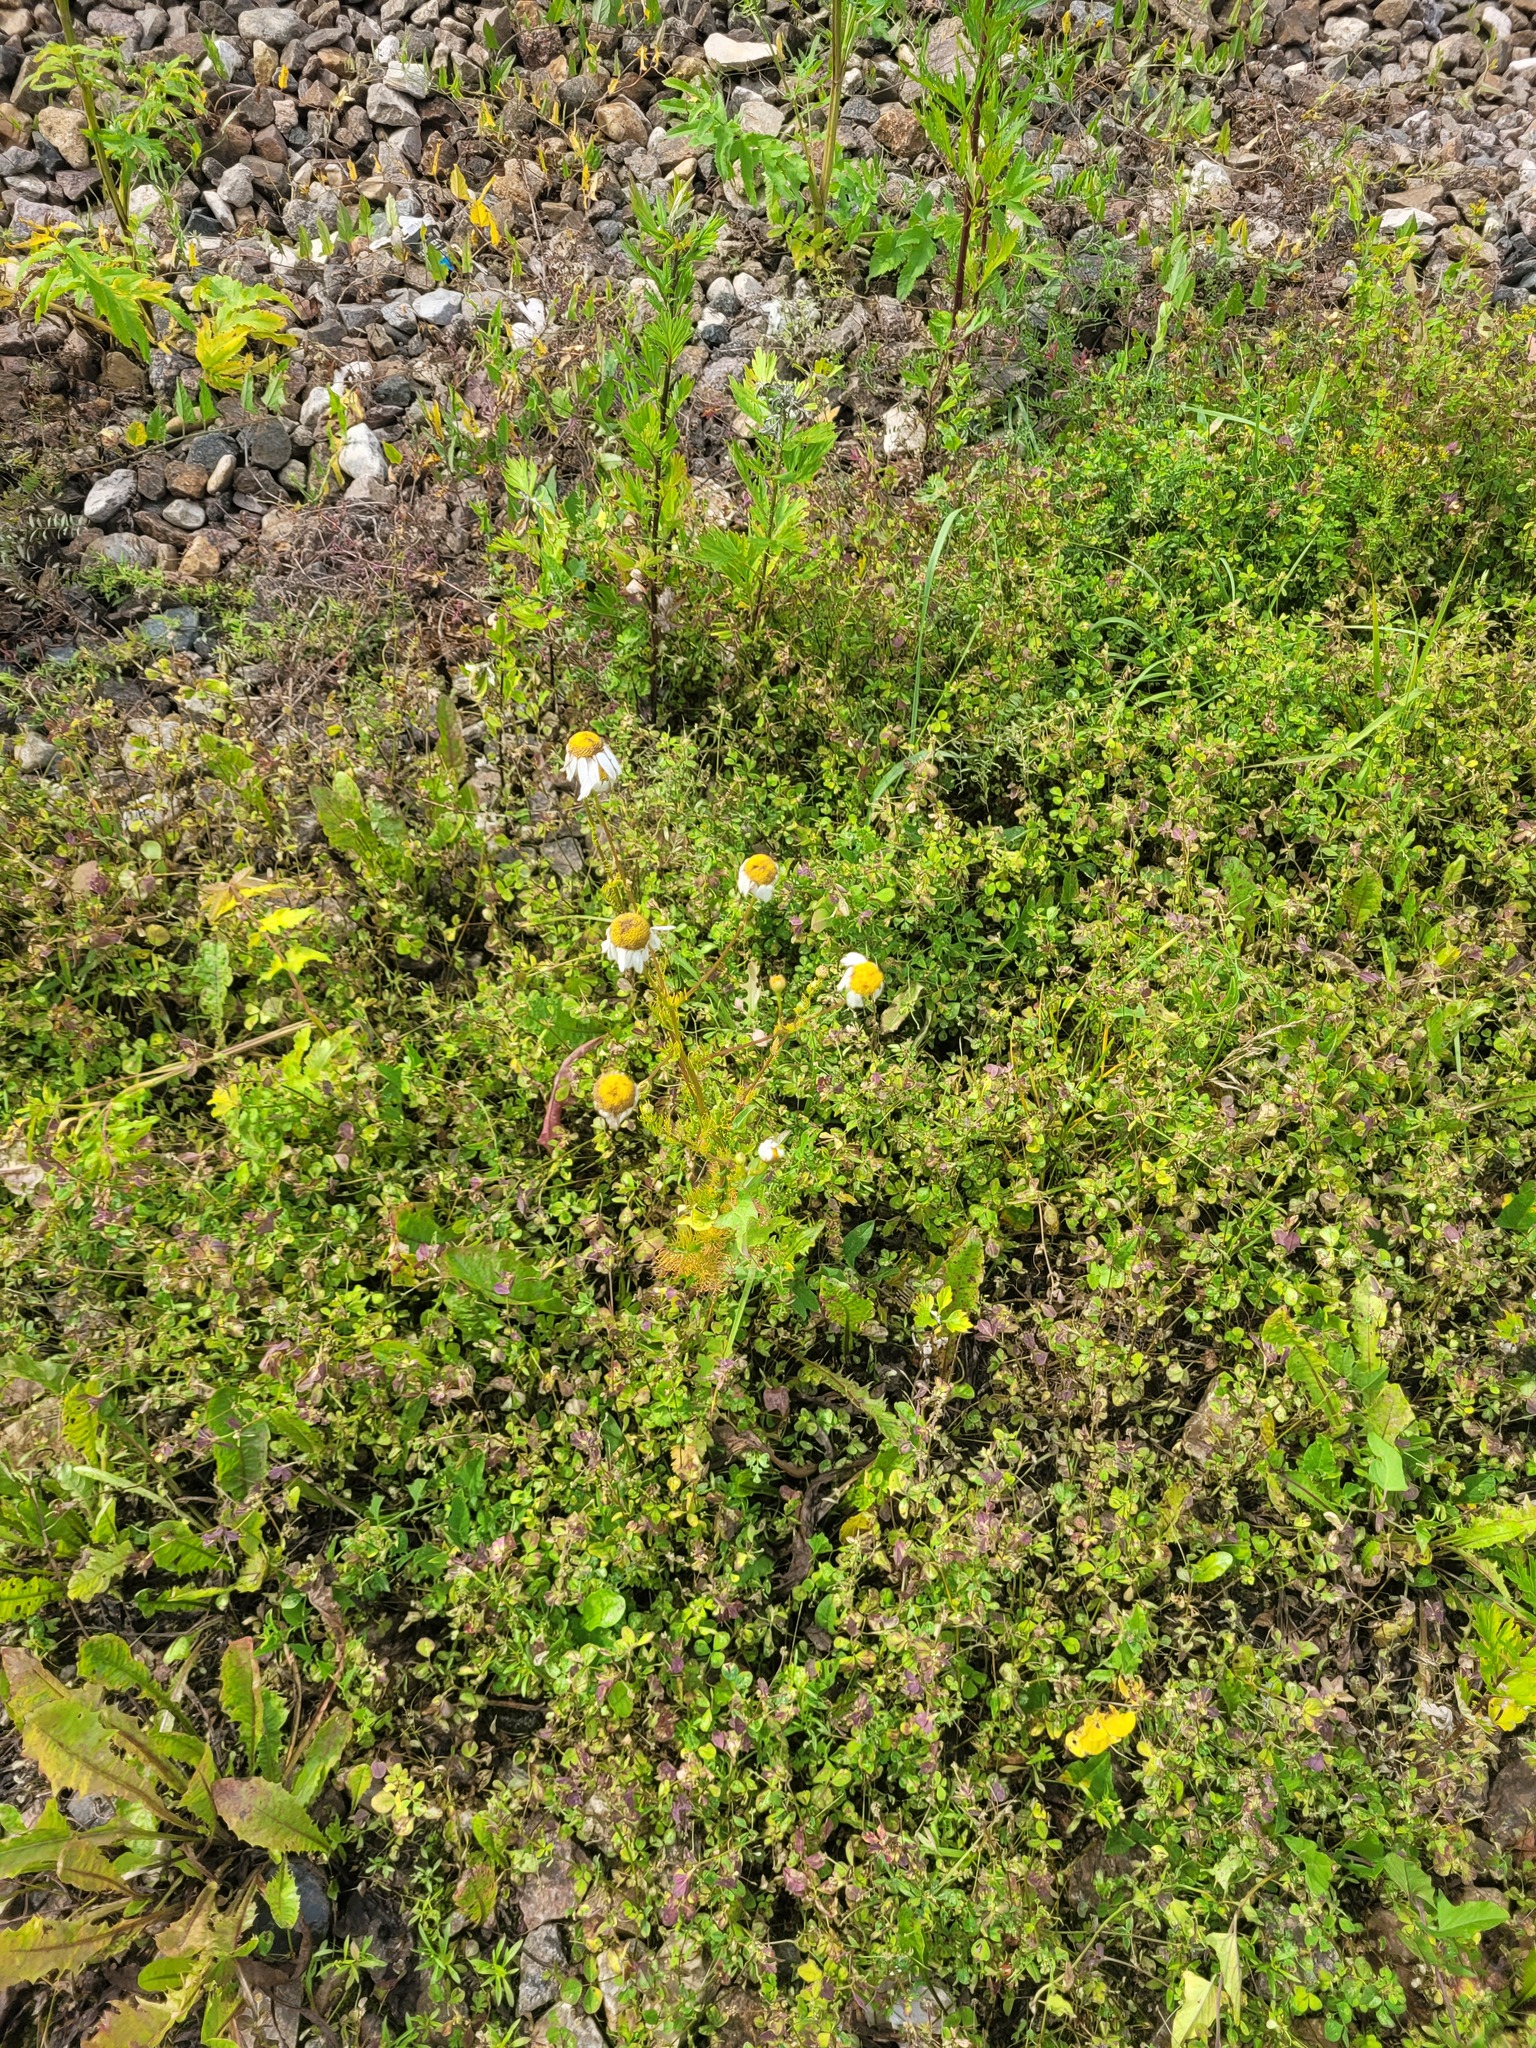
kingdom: Plantae
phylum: Tracheophyta
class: Magnoliopsida
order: Asterales
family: Asteraceae
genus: Tripleurospermum
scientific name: Tripleurospermum inodorum
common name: Scentless mayweed
